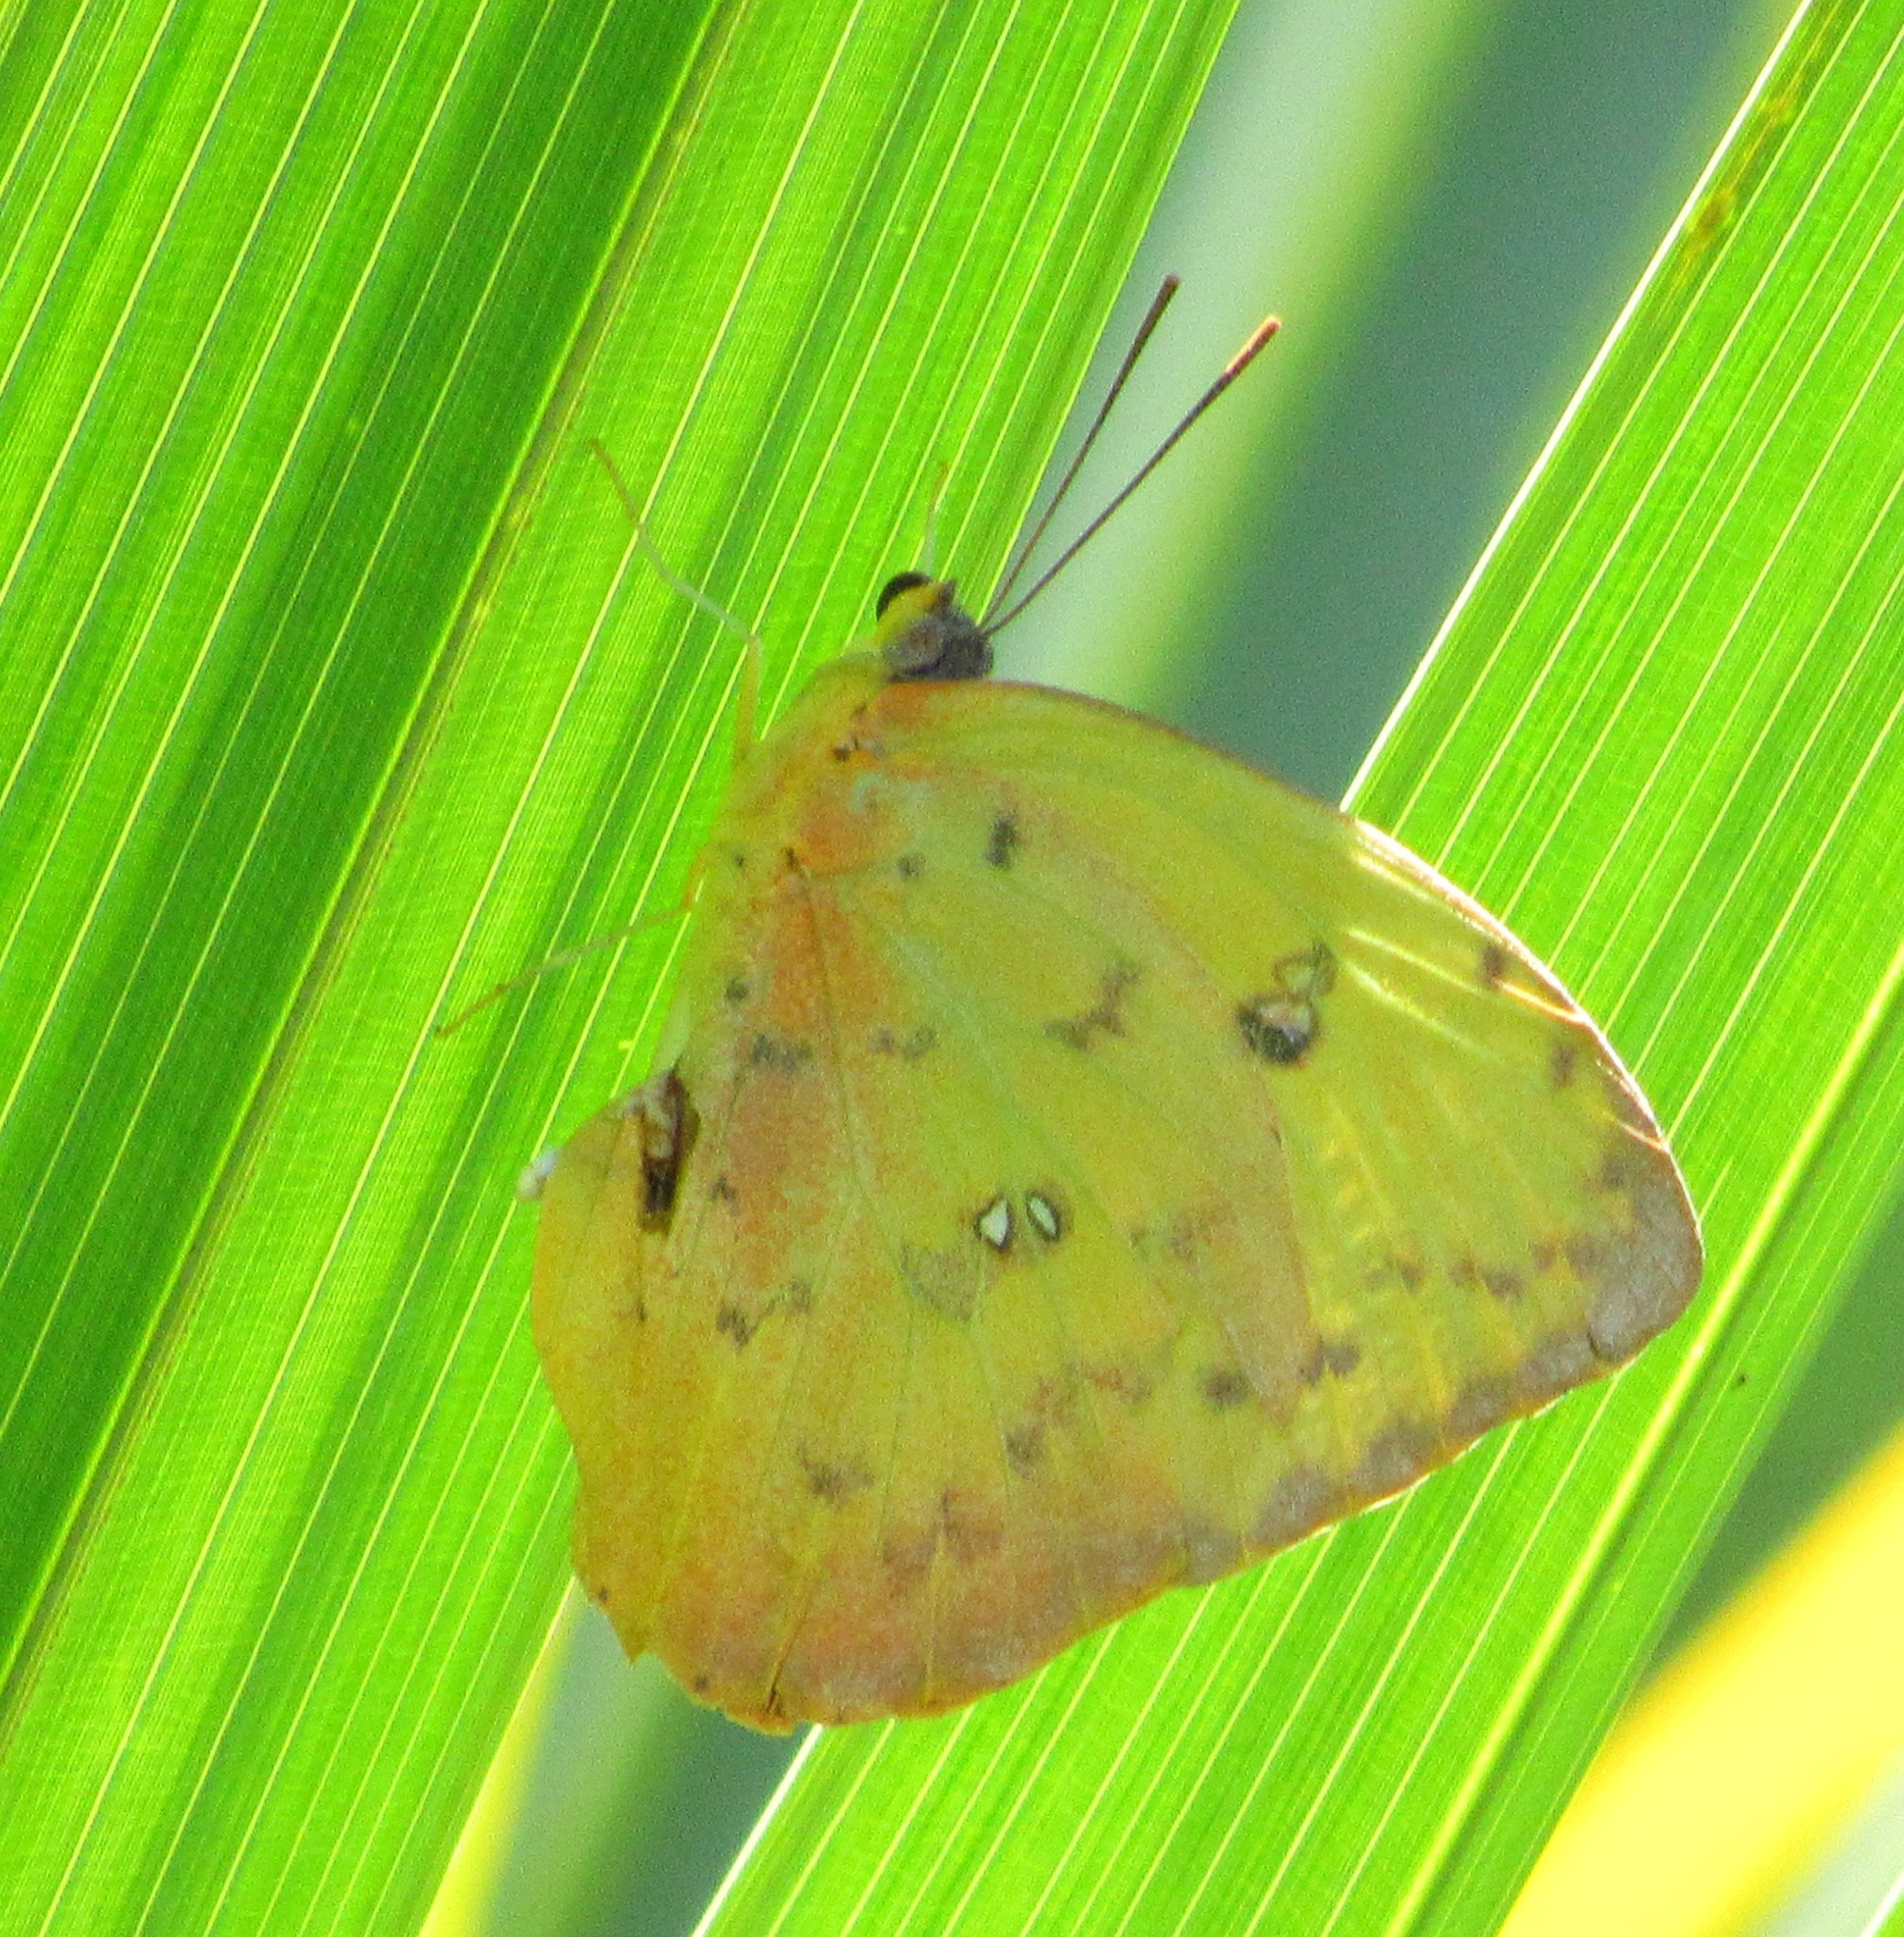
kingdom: Animalia
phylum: Arthropoda
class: Insecta
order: Lepidoptera
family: Pieridae
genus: Phoebis
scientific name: Phoebis philea
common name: Orange-barred giant sulphur
